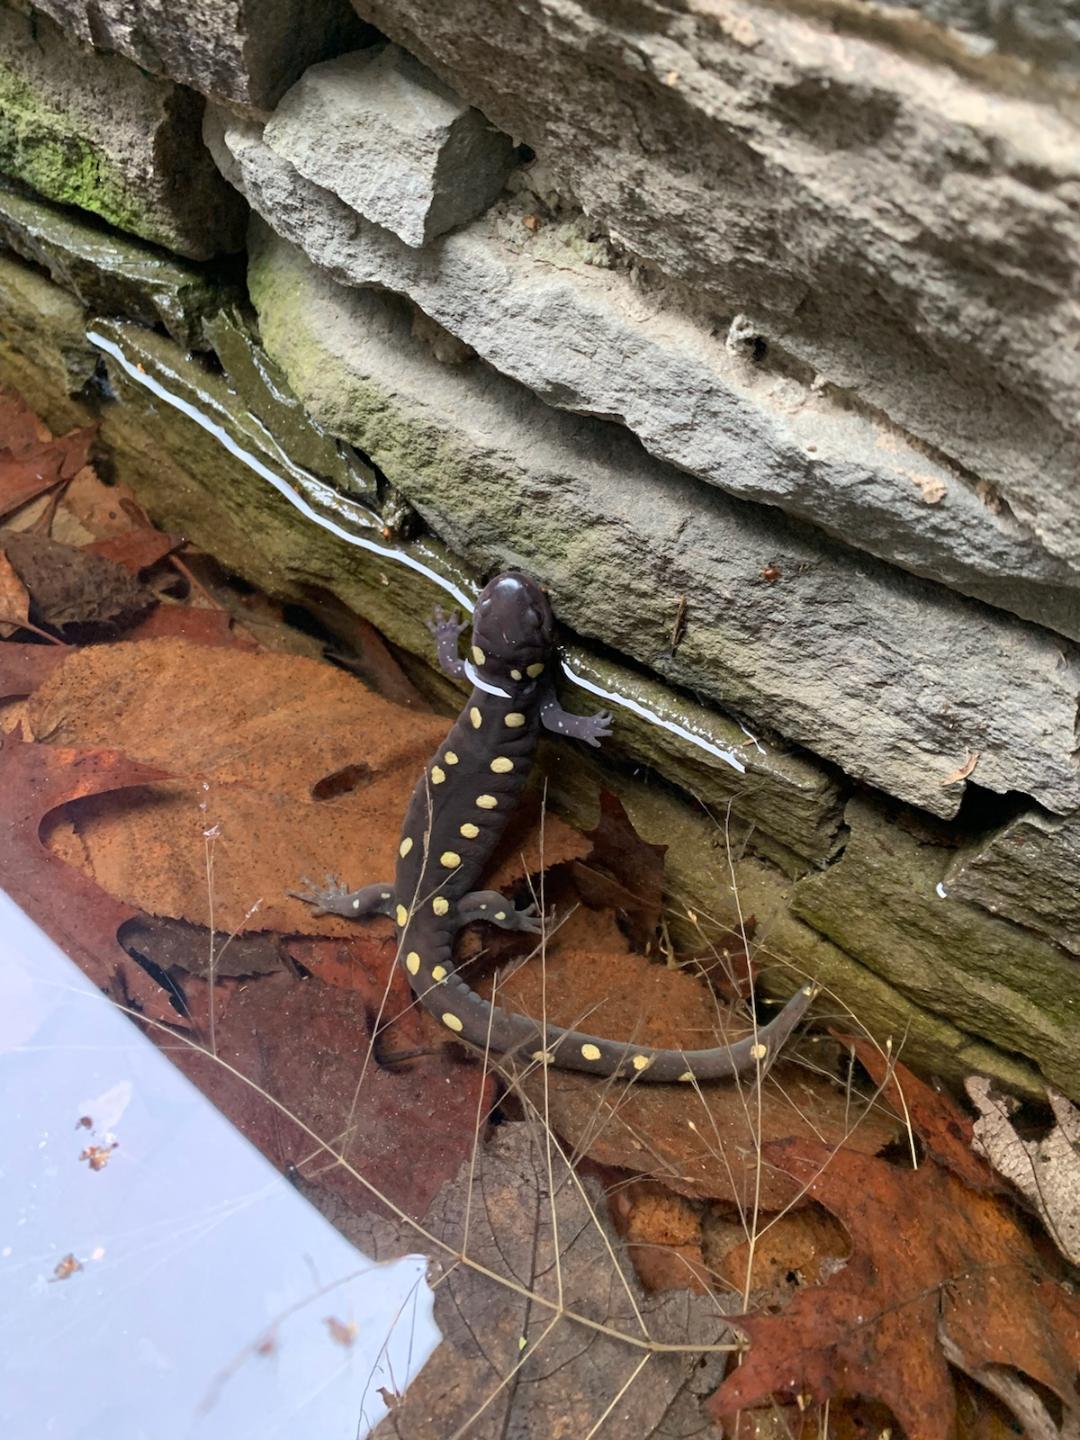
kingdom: Animalia
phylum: Chordata
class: Amphibia
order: Caudata
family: Ambystomatidae
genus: Ambystoma
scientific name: Ambystoma maculatum
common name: Spotted salamander
